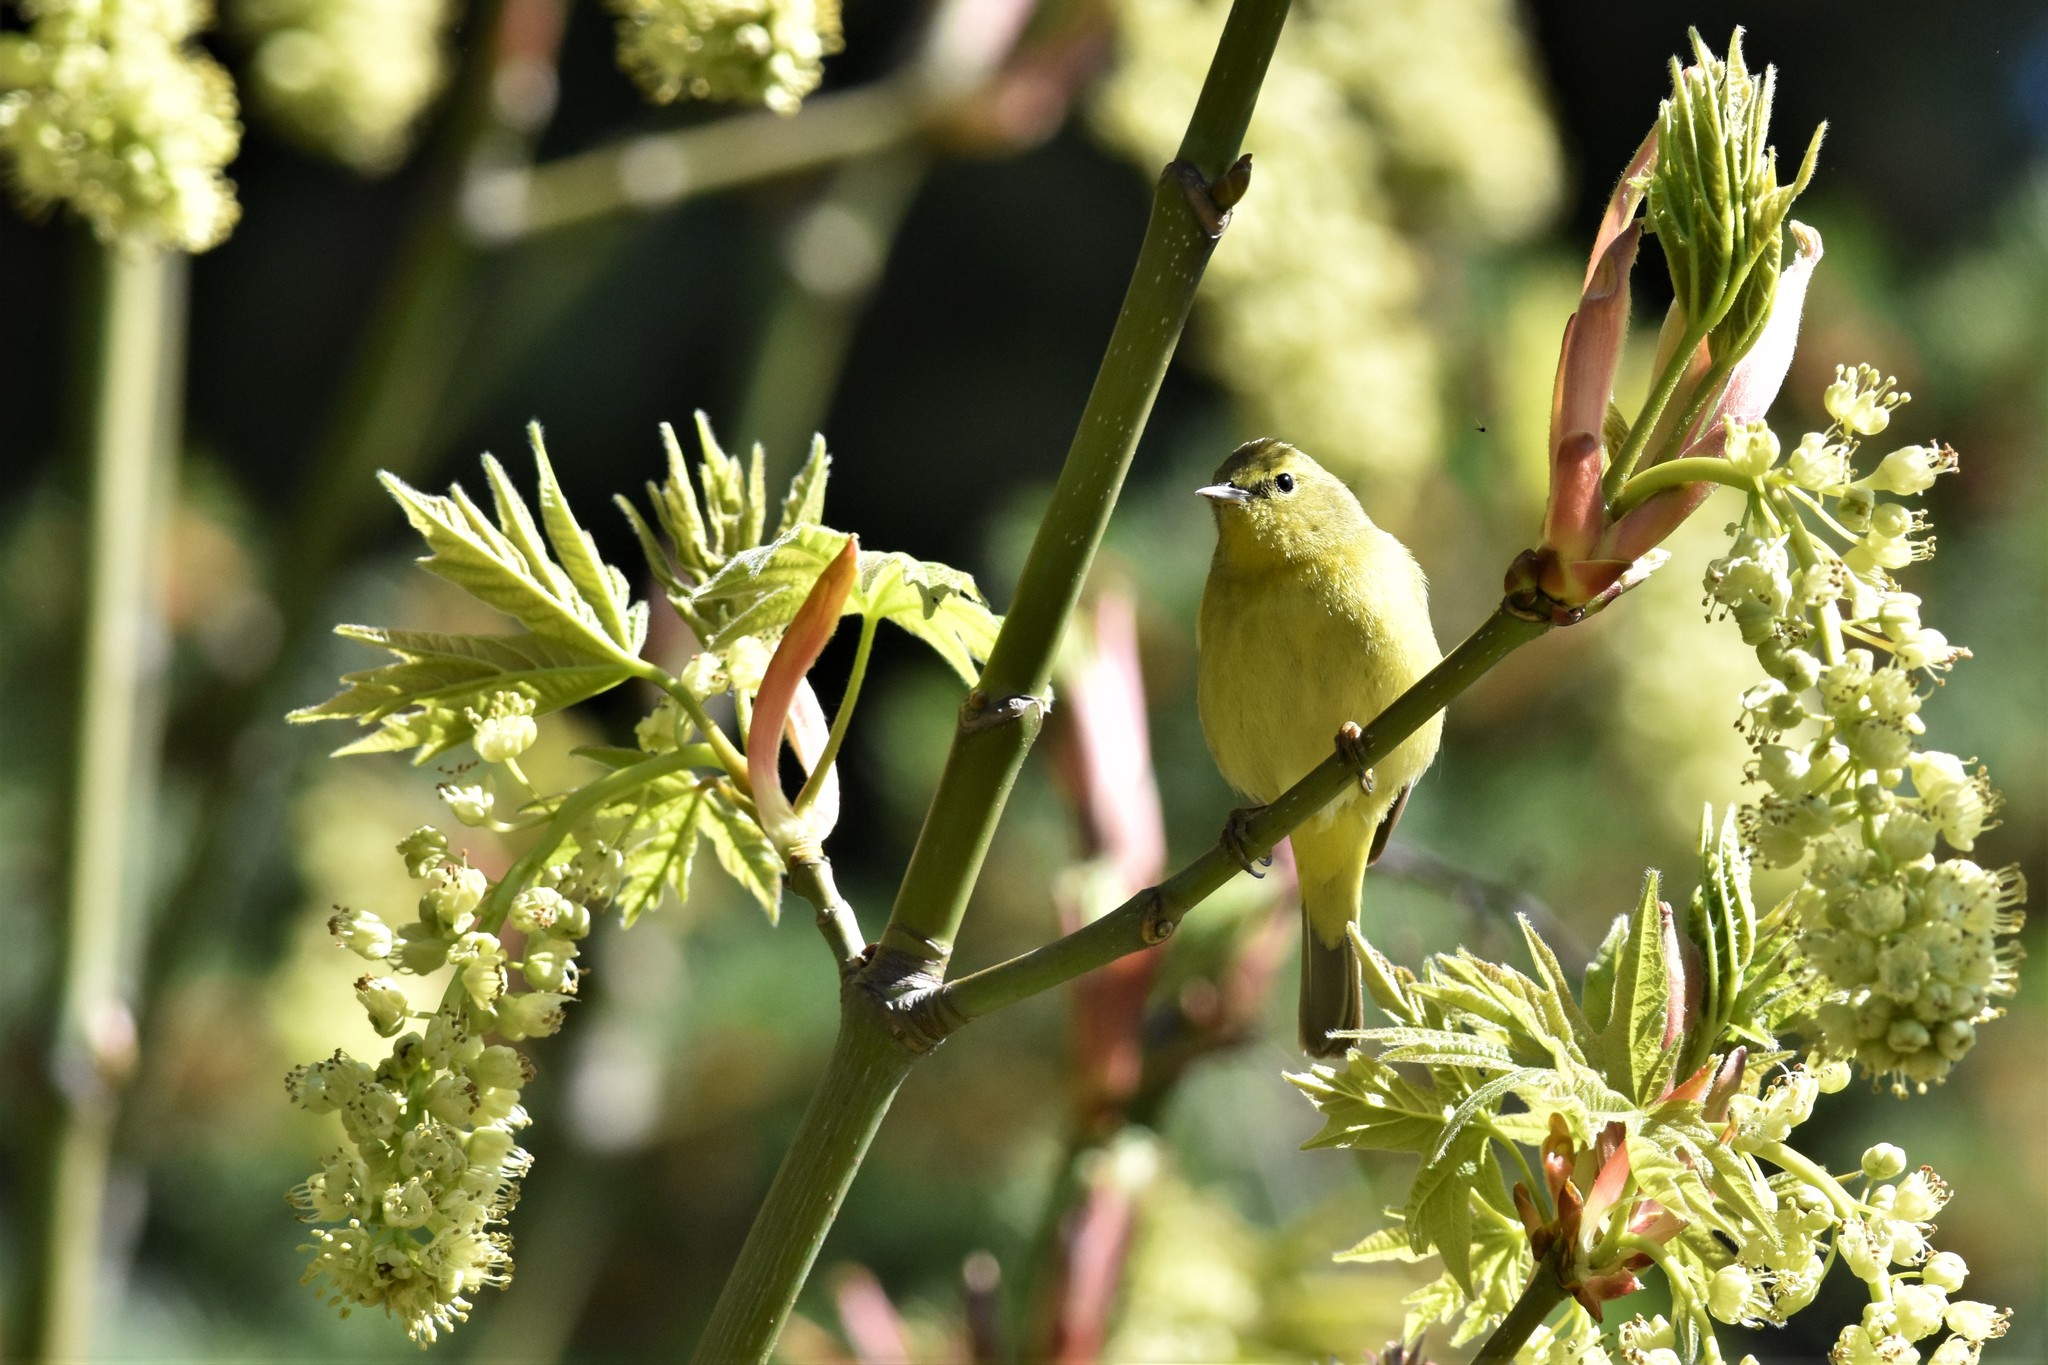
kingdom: Animalia
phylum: Chordata
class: Aves
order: Passeriformes
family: Parulidae
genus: Leiothlypis
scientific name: Leiothlypis celata
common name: Orange-crowned warbler
